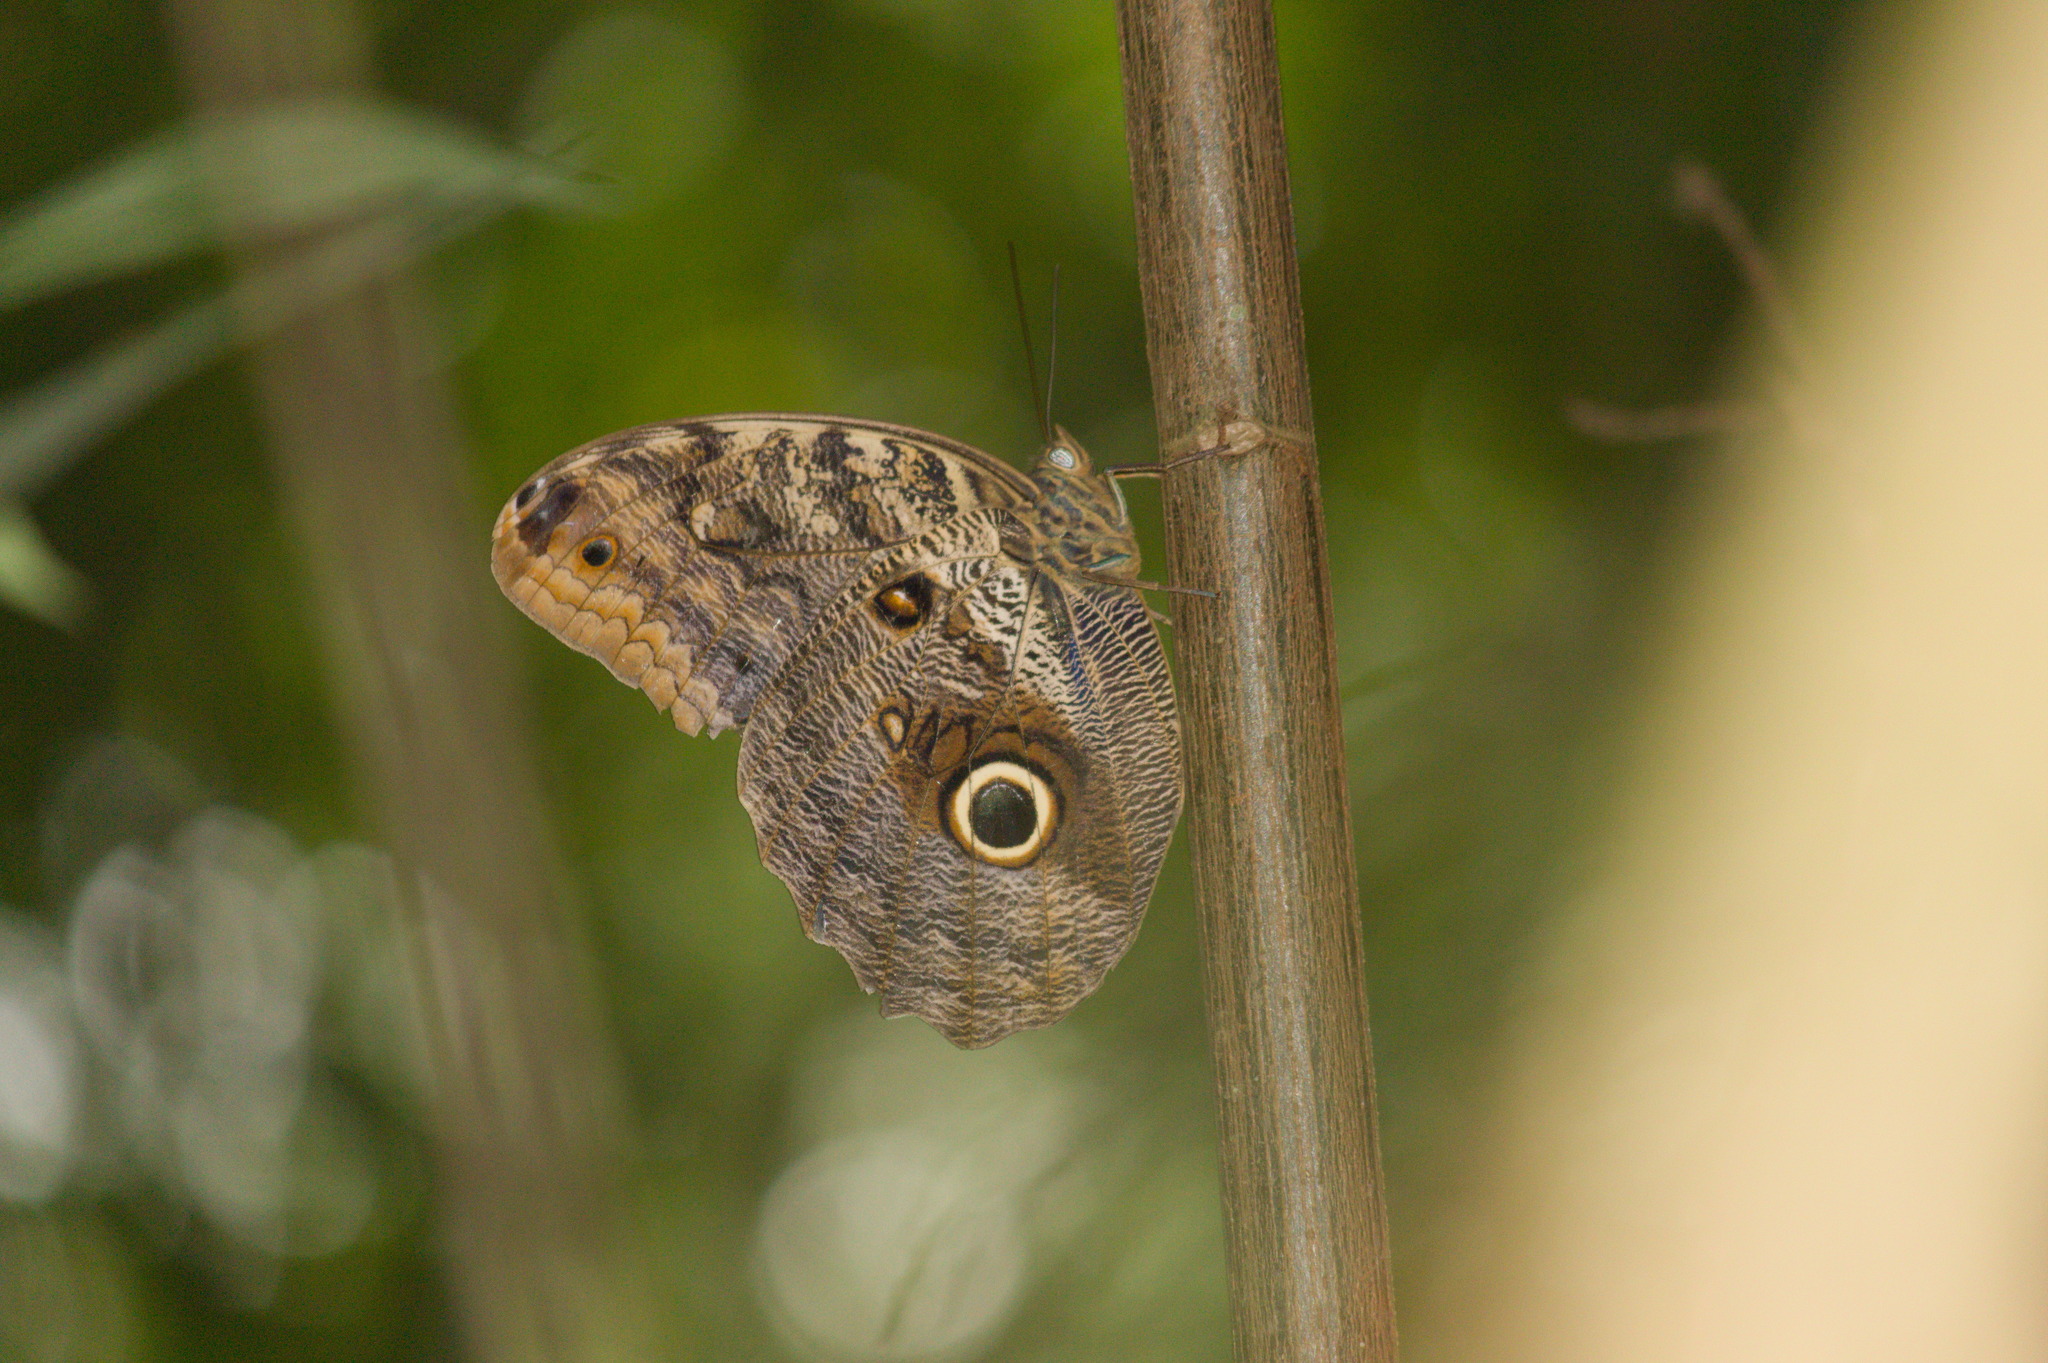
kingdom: Animalia
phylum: Arthropoda
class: Insecta
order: Lepidoptera
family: Nymphalidae
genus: Caligo
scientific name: Caligo brasiliensis
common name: Dark owl-butterfly
